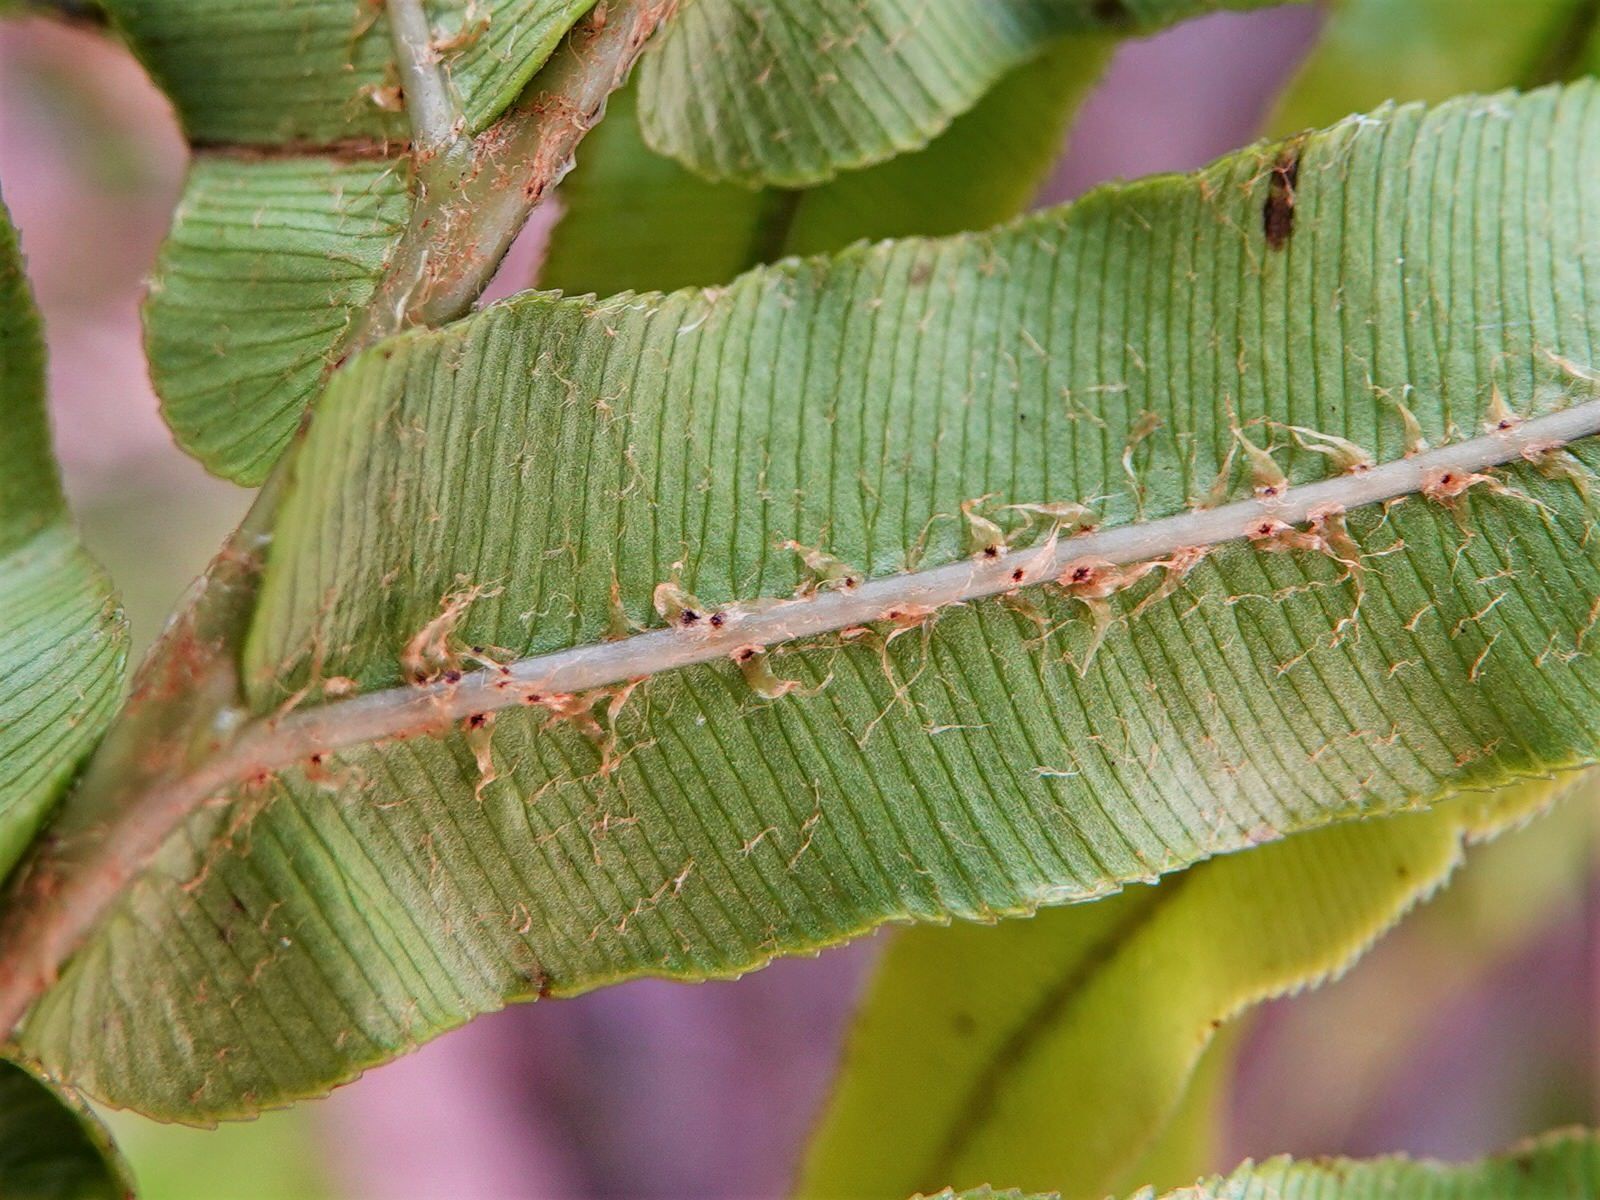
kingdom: Plantae
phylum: Tracheophyta
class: Polypodiopsida
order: Polypodiales
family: Blechnaceae
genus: Parablechnum
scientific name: Parablechnum novae-zelandiae
